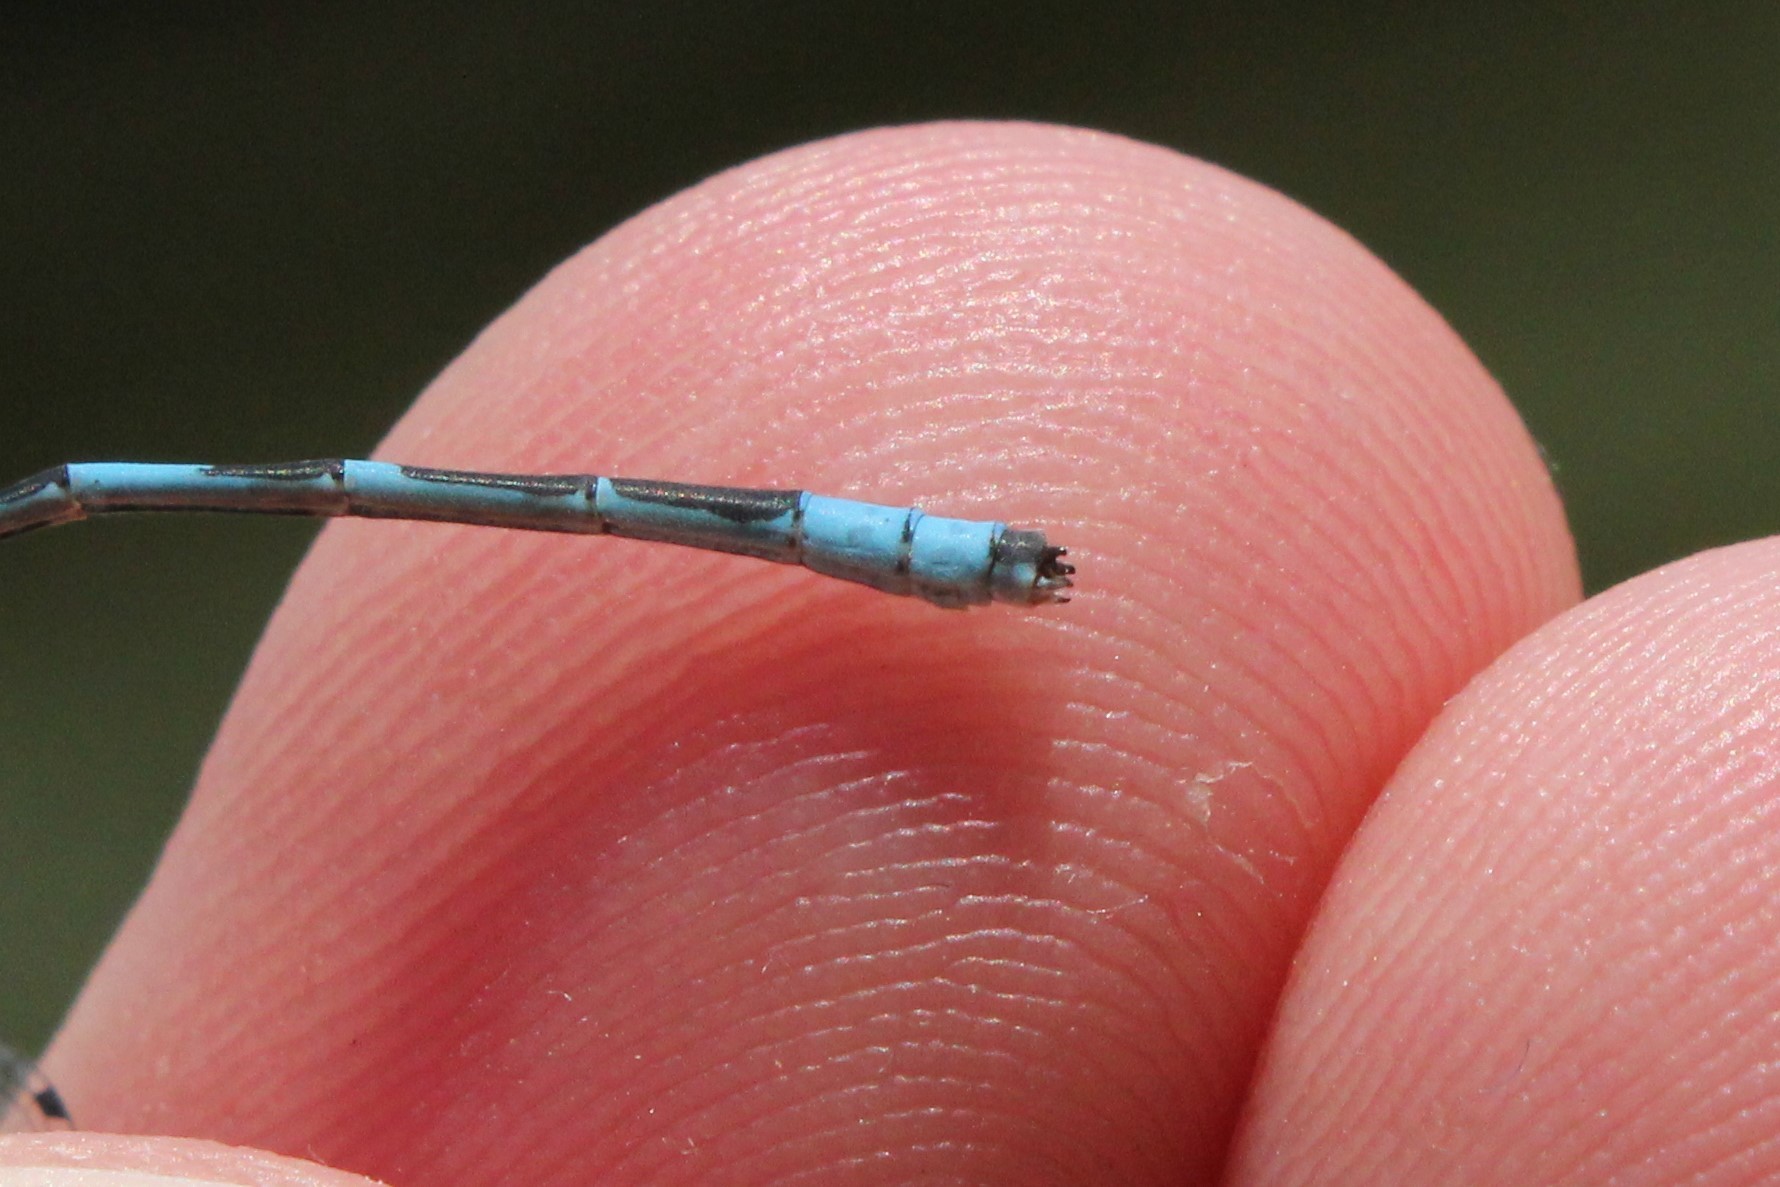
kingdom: Animalia
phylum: Arthropoda
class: Insecta
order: Odonata
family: Coenagrionidae
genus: Enallagma
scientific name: Enallagma ebrium
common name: Marsh bluet
